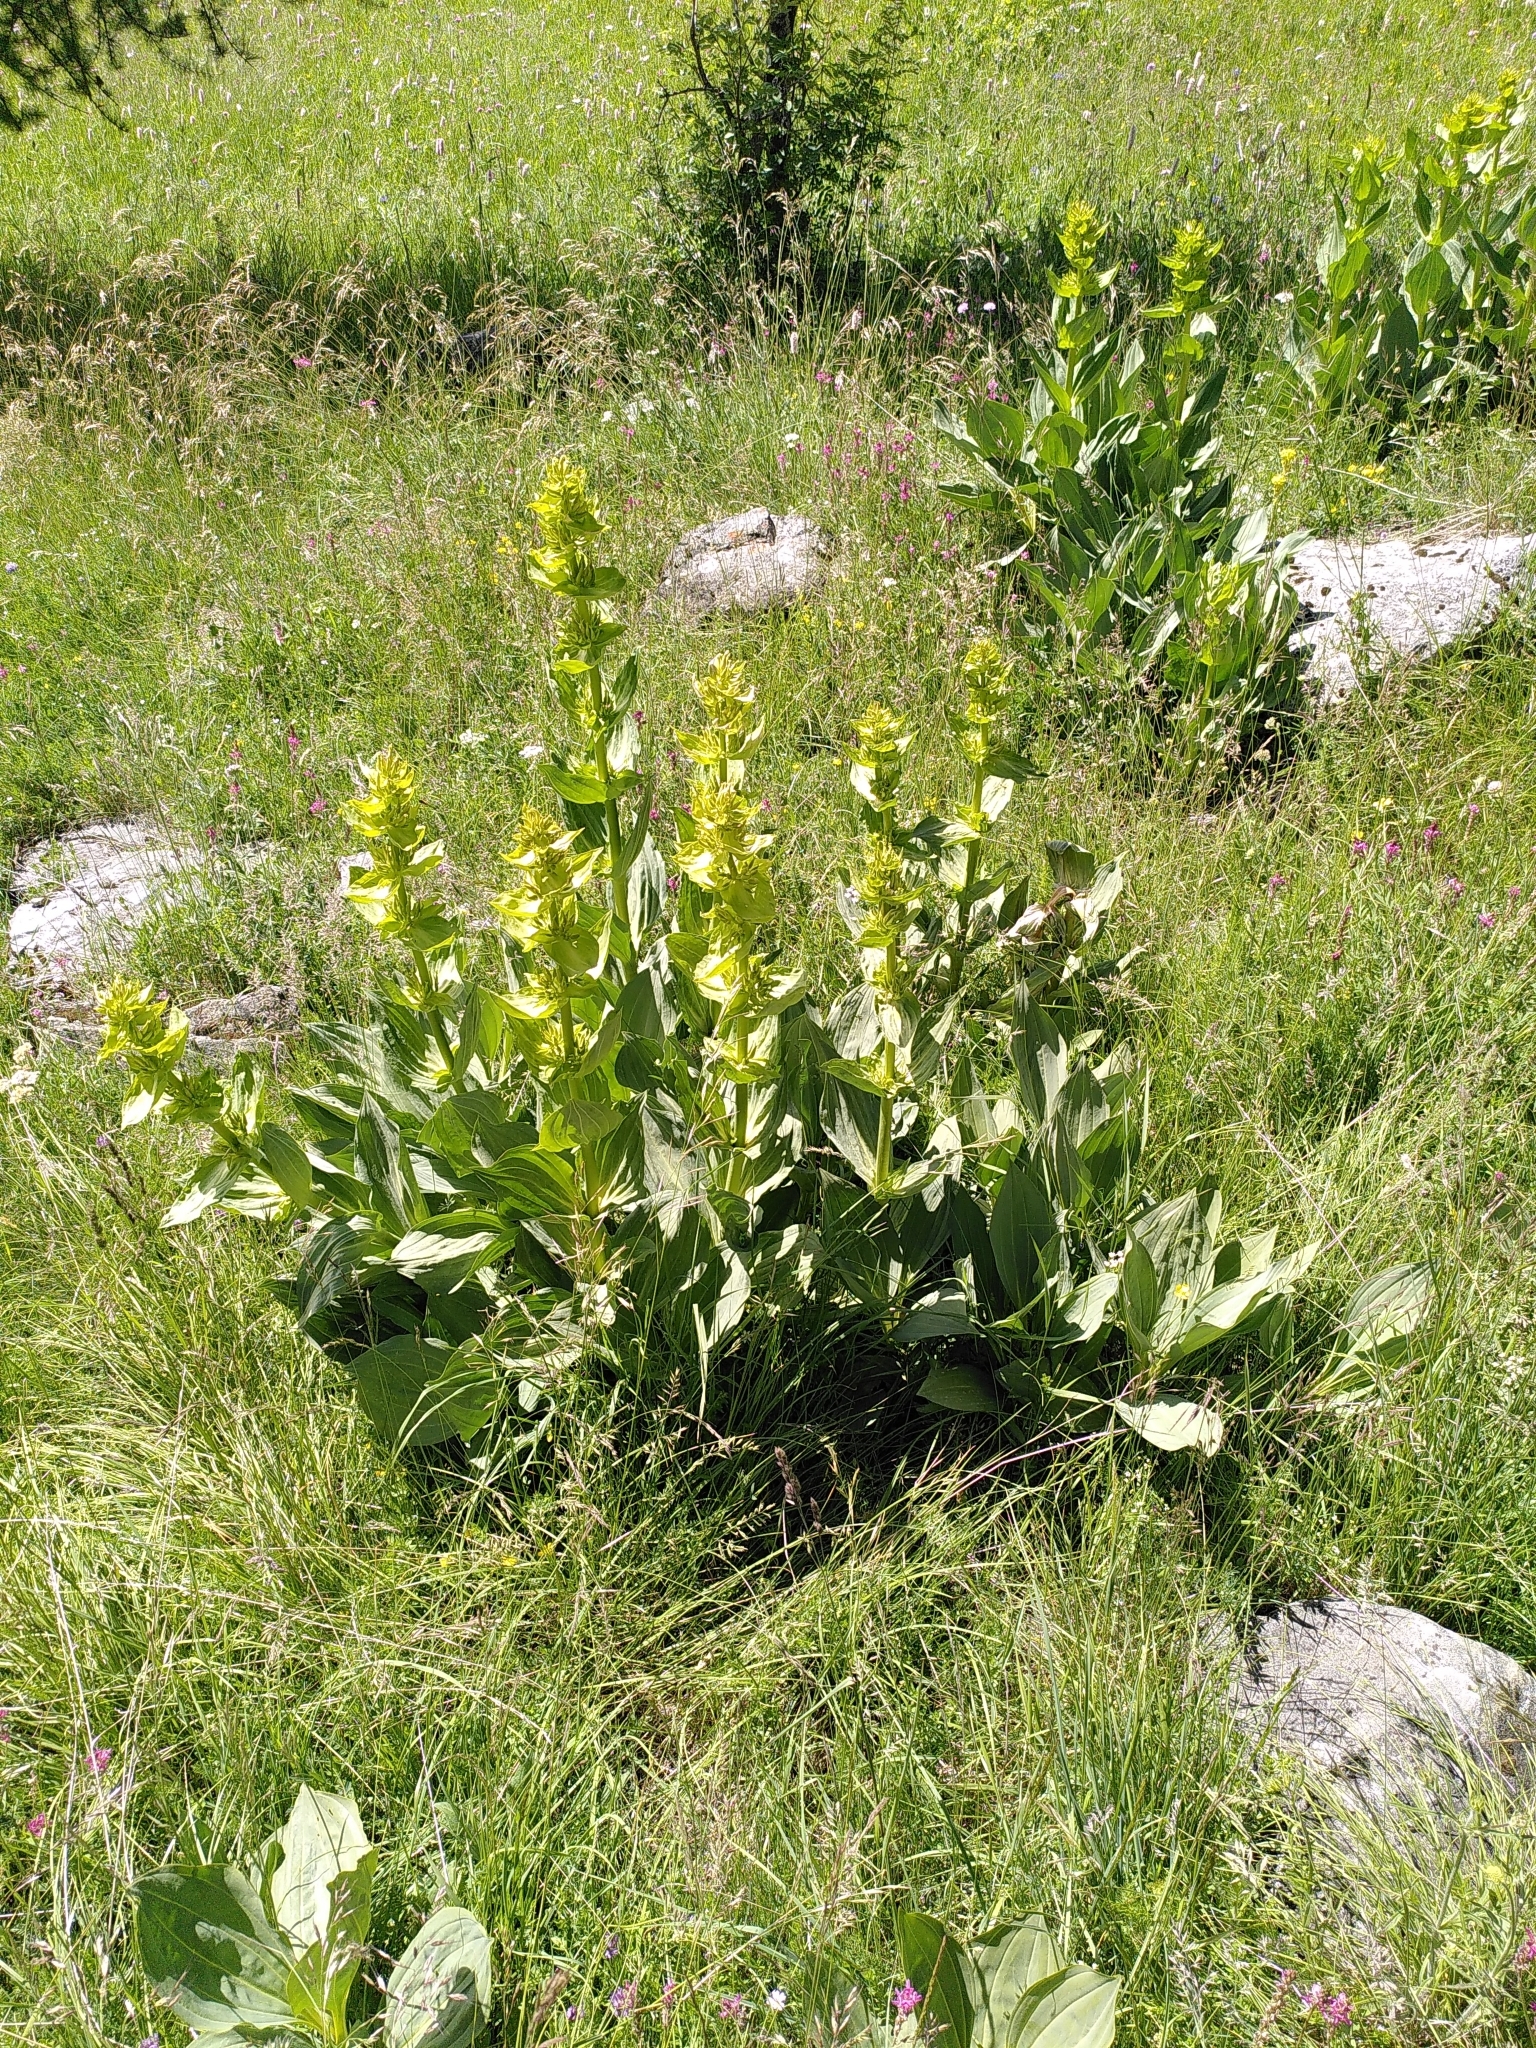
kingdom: Plantae
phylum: Tracheophyta
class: Magnoliopsida
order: Gentianales
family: Gentianaceae
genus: Gentiana
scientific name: Gentiana lutea
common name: Great yellow gentian
